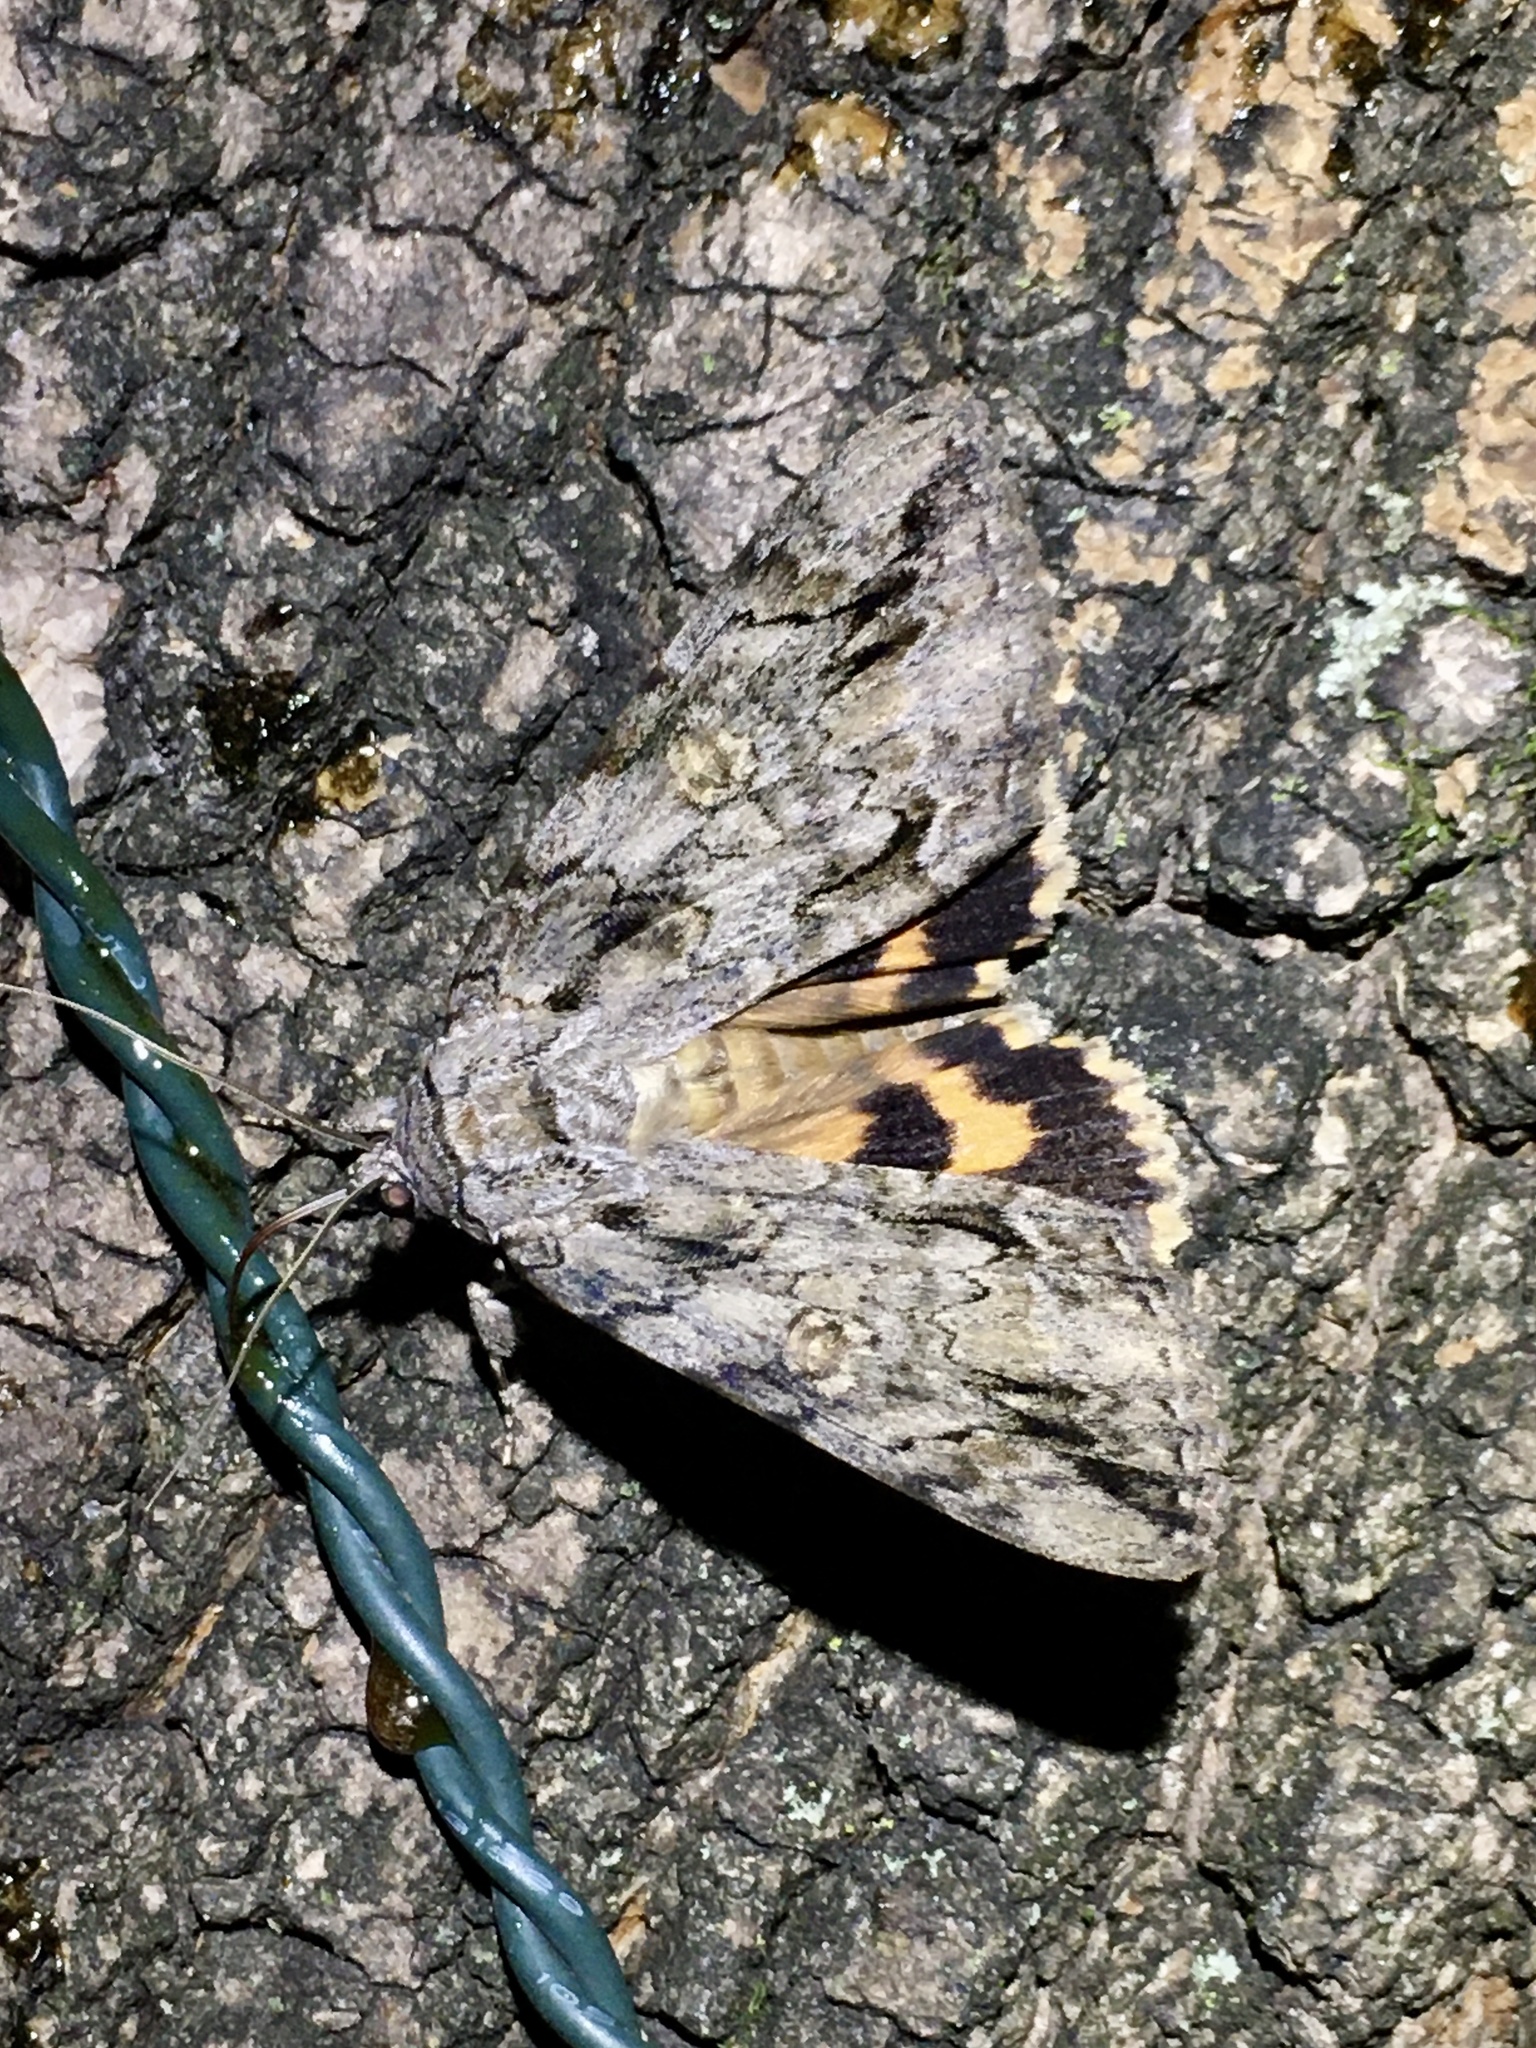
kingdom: Animalia
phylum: Arthropoda
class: Insecta
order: Lepidoptera
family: Erebidae
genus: Catocala
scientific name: Catocala neogama
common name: Bride underwing
